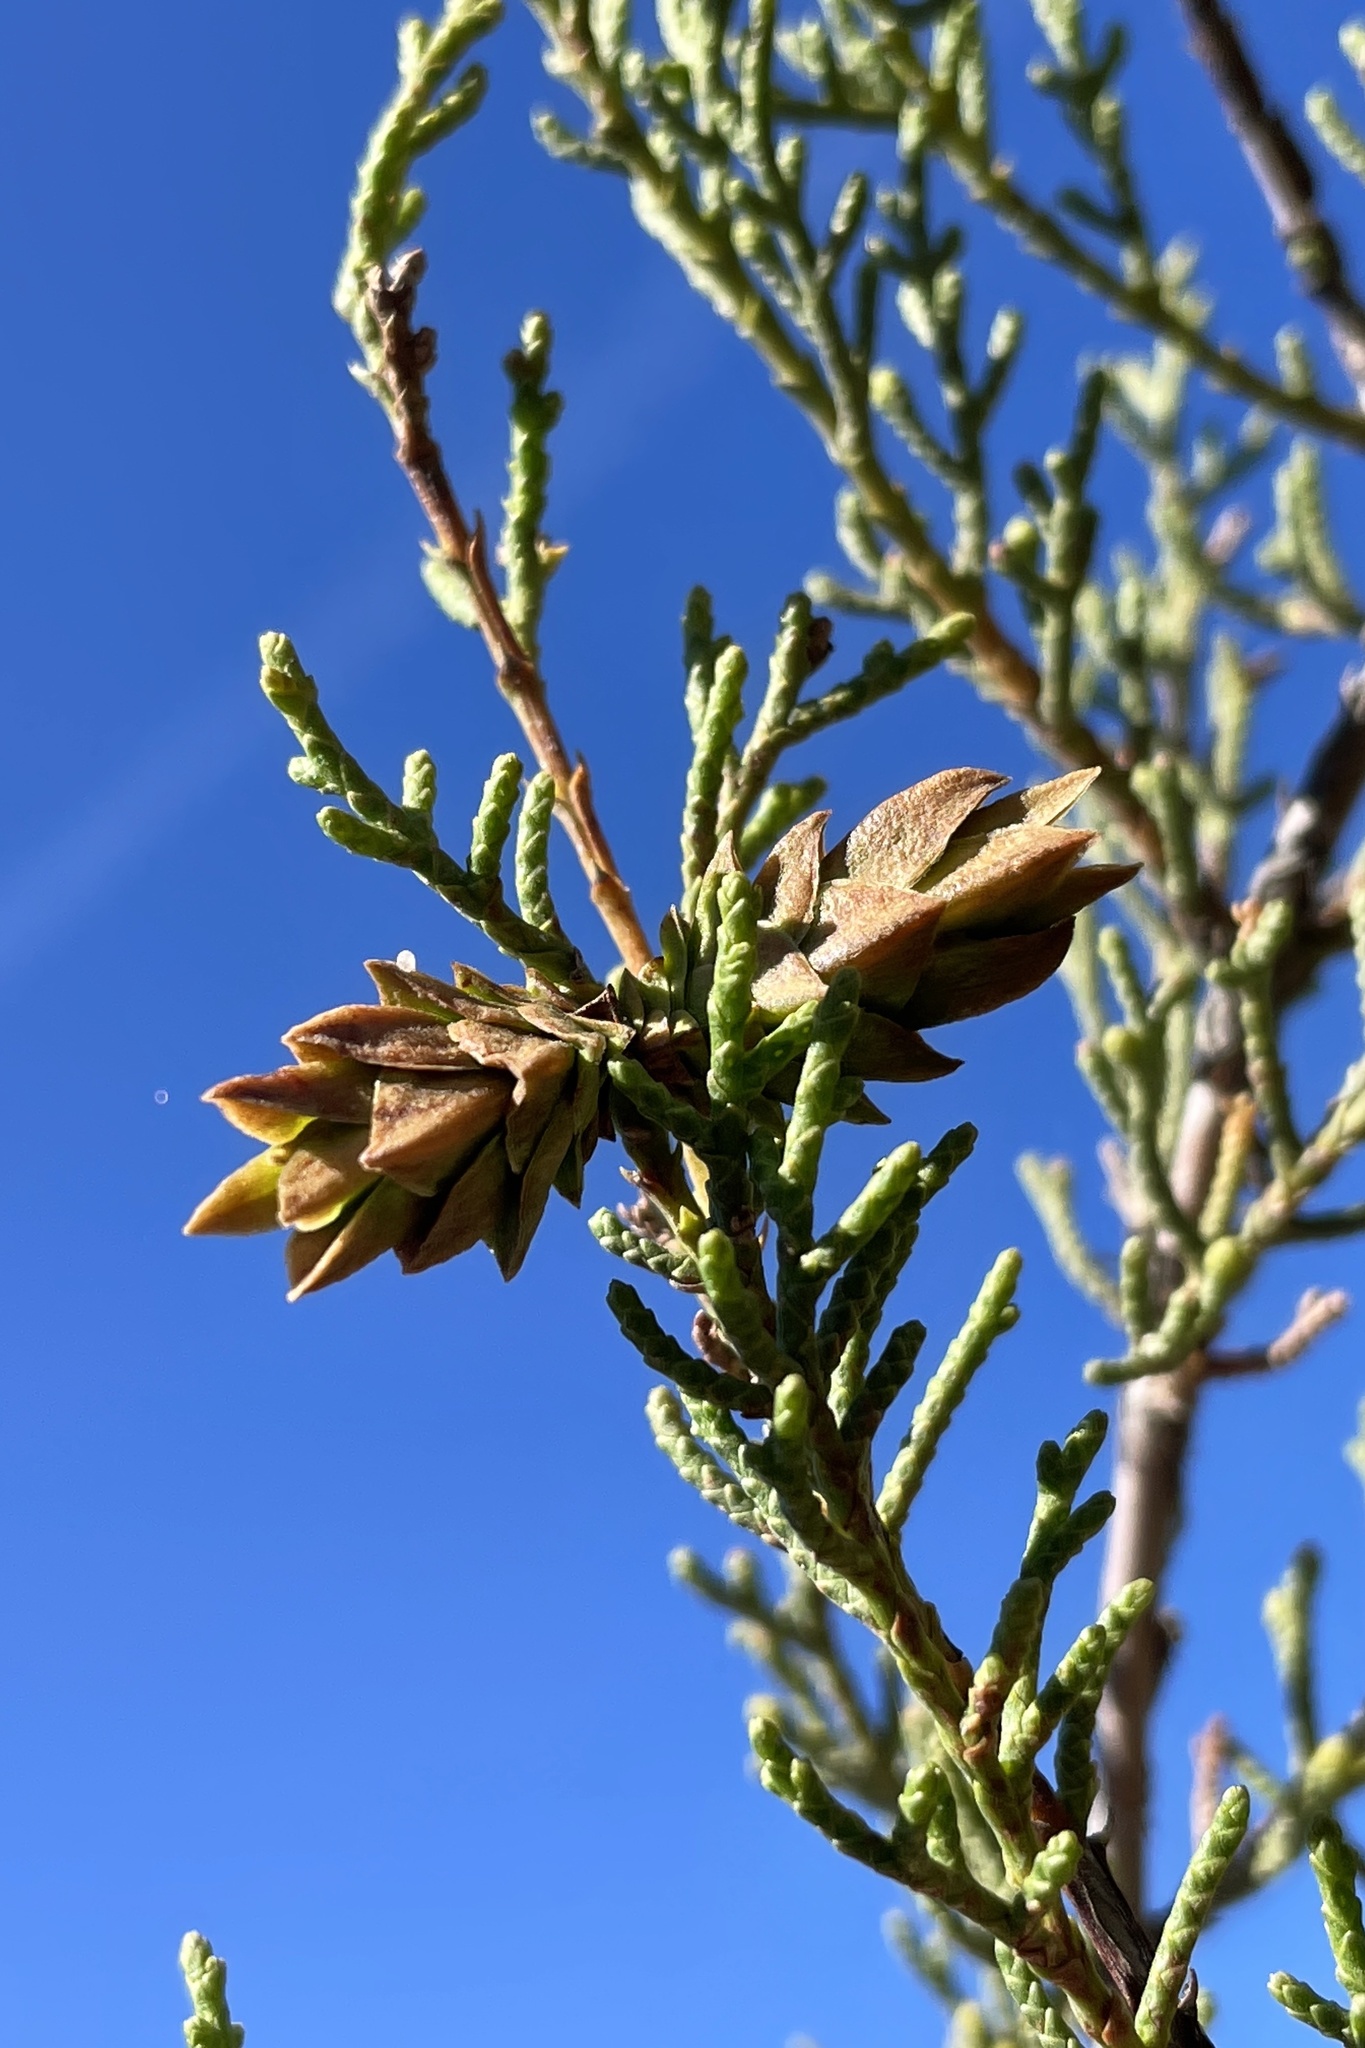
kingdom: Animalia
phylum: Arthropoda
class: Insecta
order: Diptera
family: Cecidomyiidae
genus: Oligotrophus
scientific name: Oligotrophus cupressi
